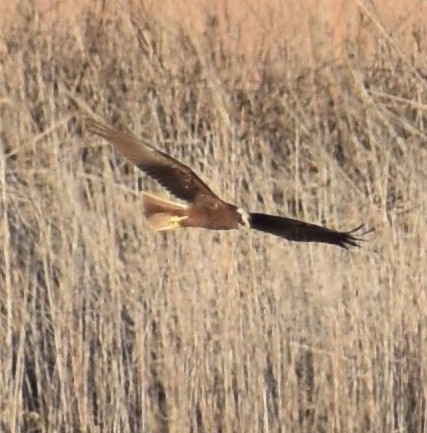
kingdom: Animalia
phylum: Chordata
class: Aves
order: Accipitriformes
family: Accipitridae
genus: Circus
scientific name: Circus aeruginosus
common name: Western marsh harrier
